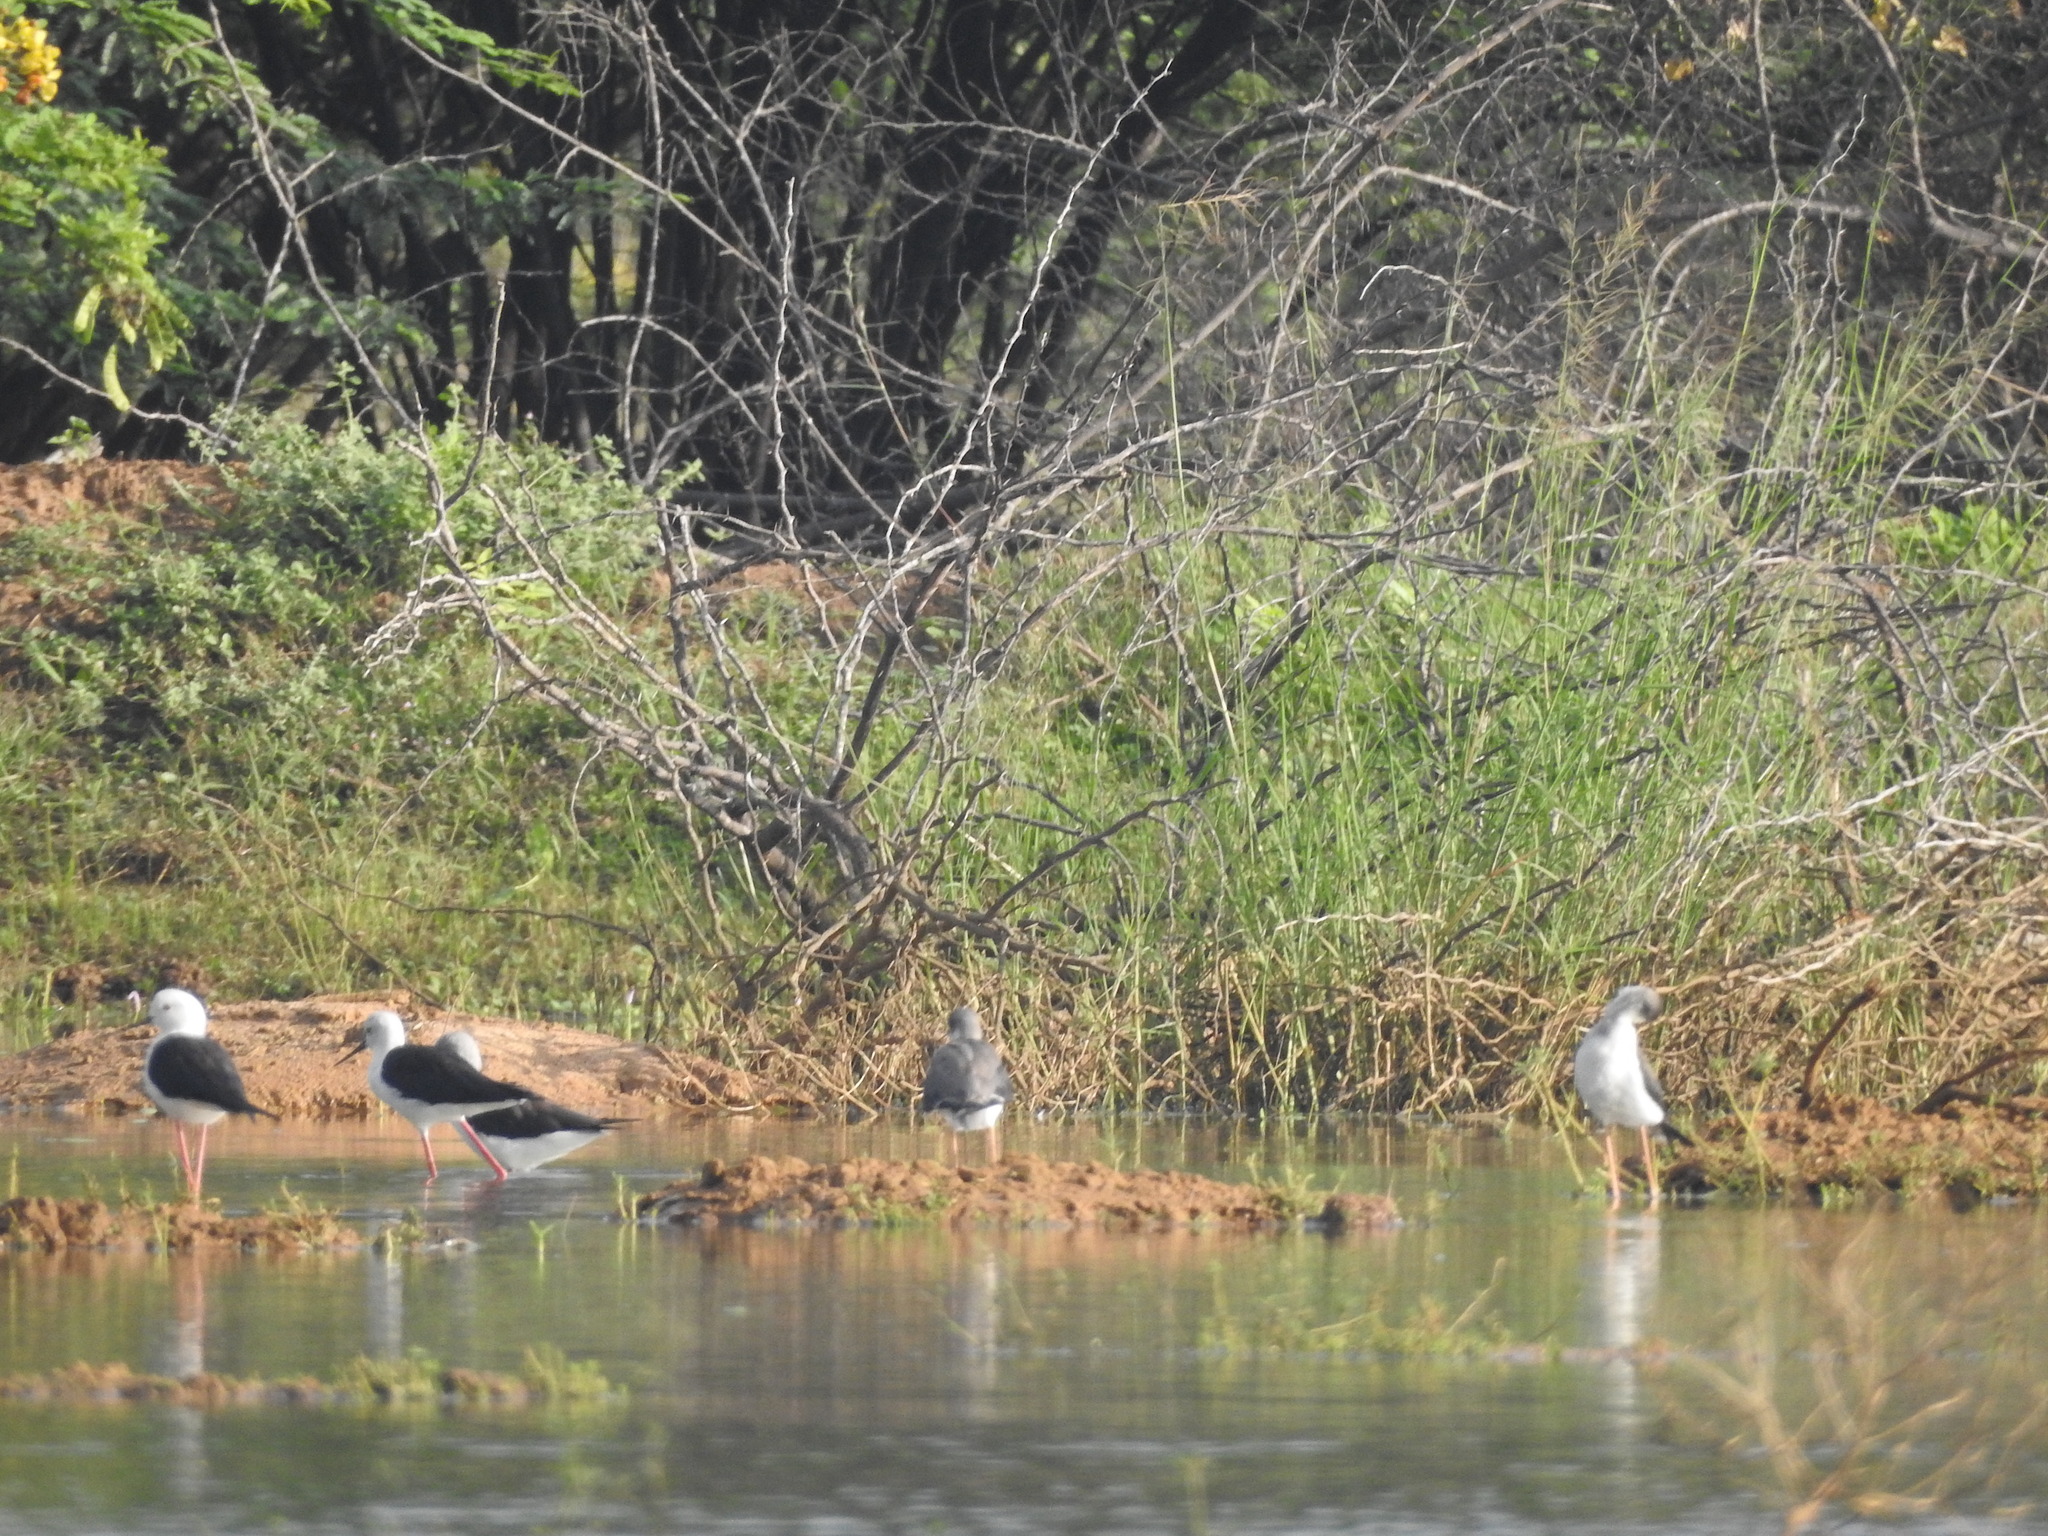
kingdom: Animalia
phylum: Chordata
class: Aves
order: Charadriiformes
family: Recurvirostridae
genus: Himantopus
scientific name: Himantopus himantopus
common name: Black-winged stilt
